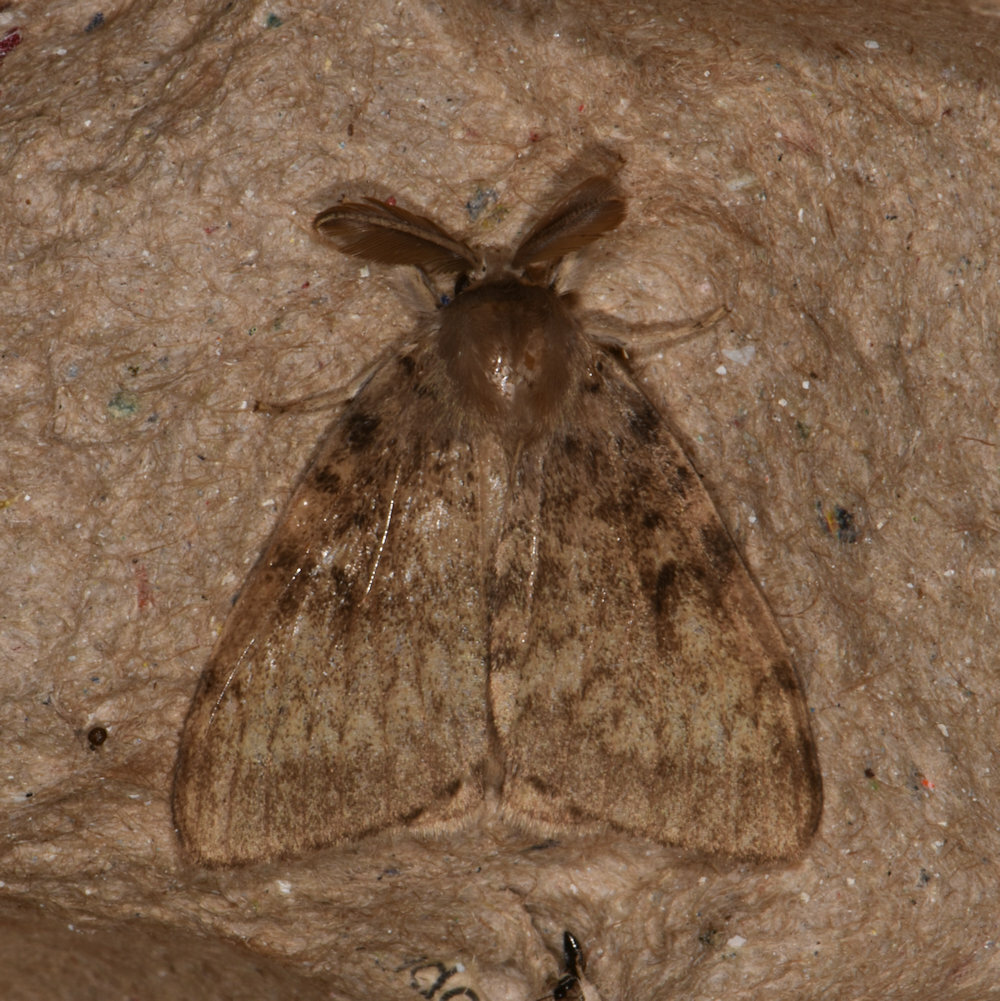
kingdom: Animalia
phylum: Arthropoda
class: Insecta
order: Lepidoptera
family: Erebidae
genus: Lymantria
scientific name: Lymantria dispar
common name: Gypsy moth
